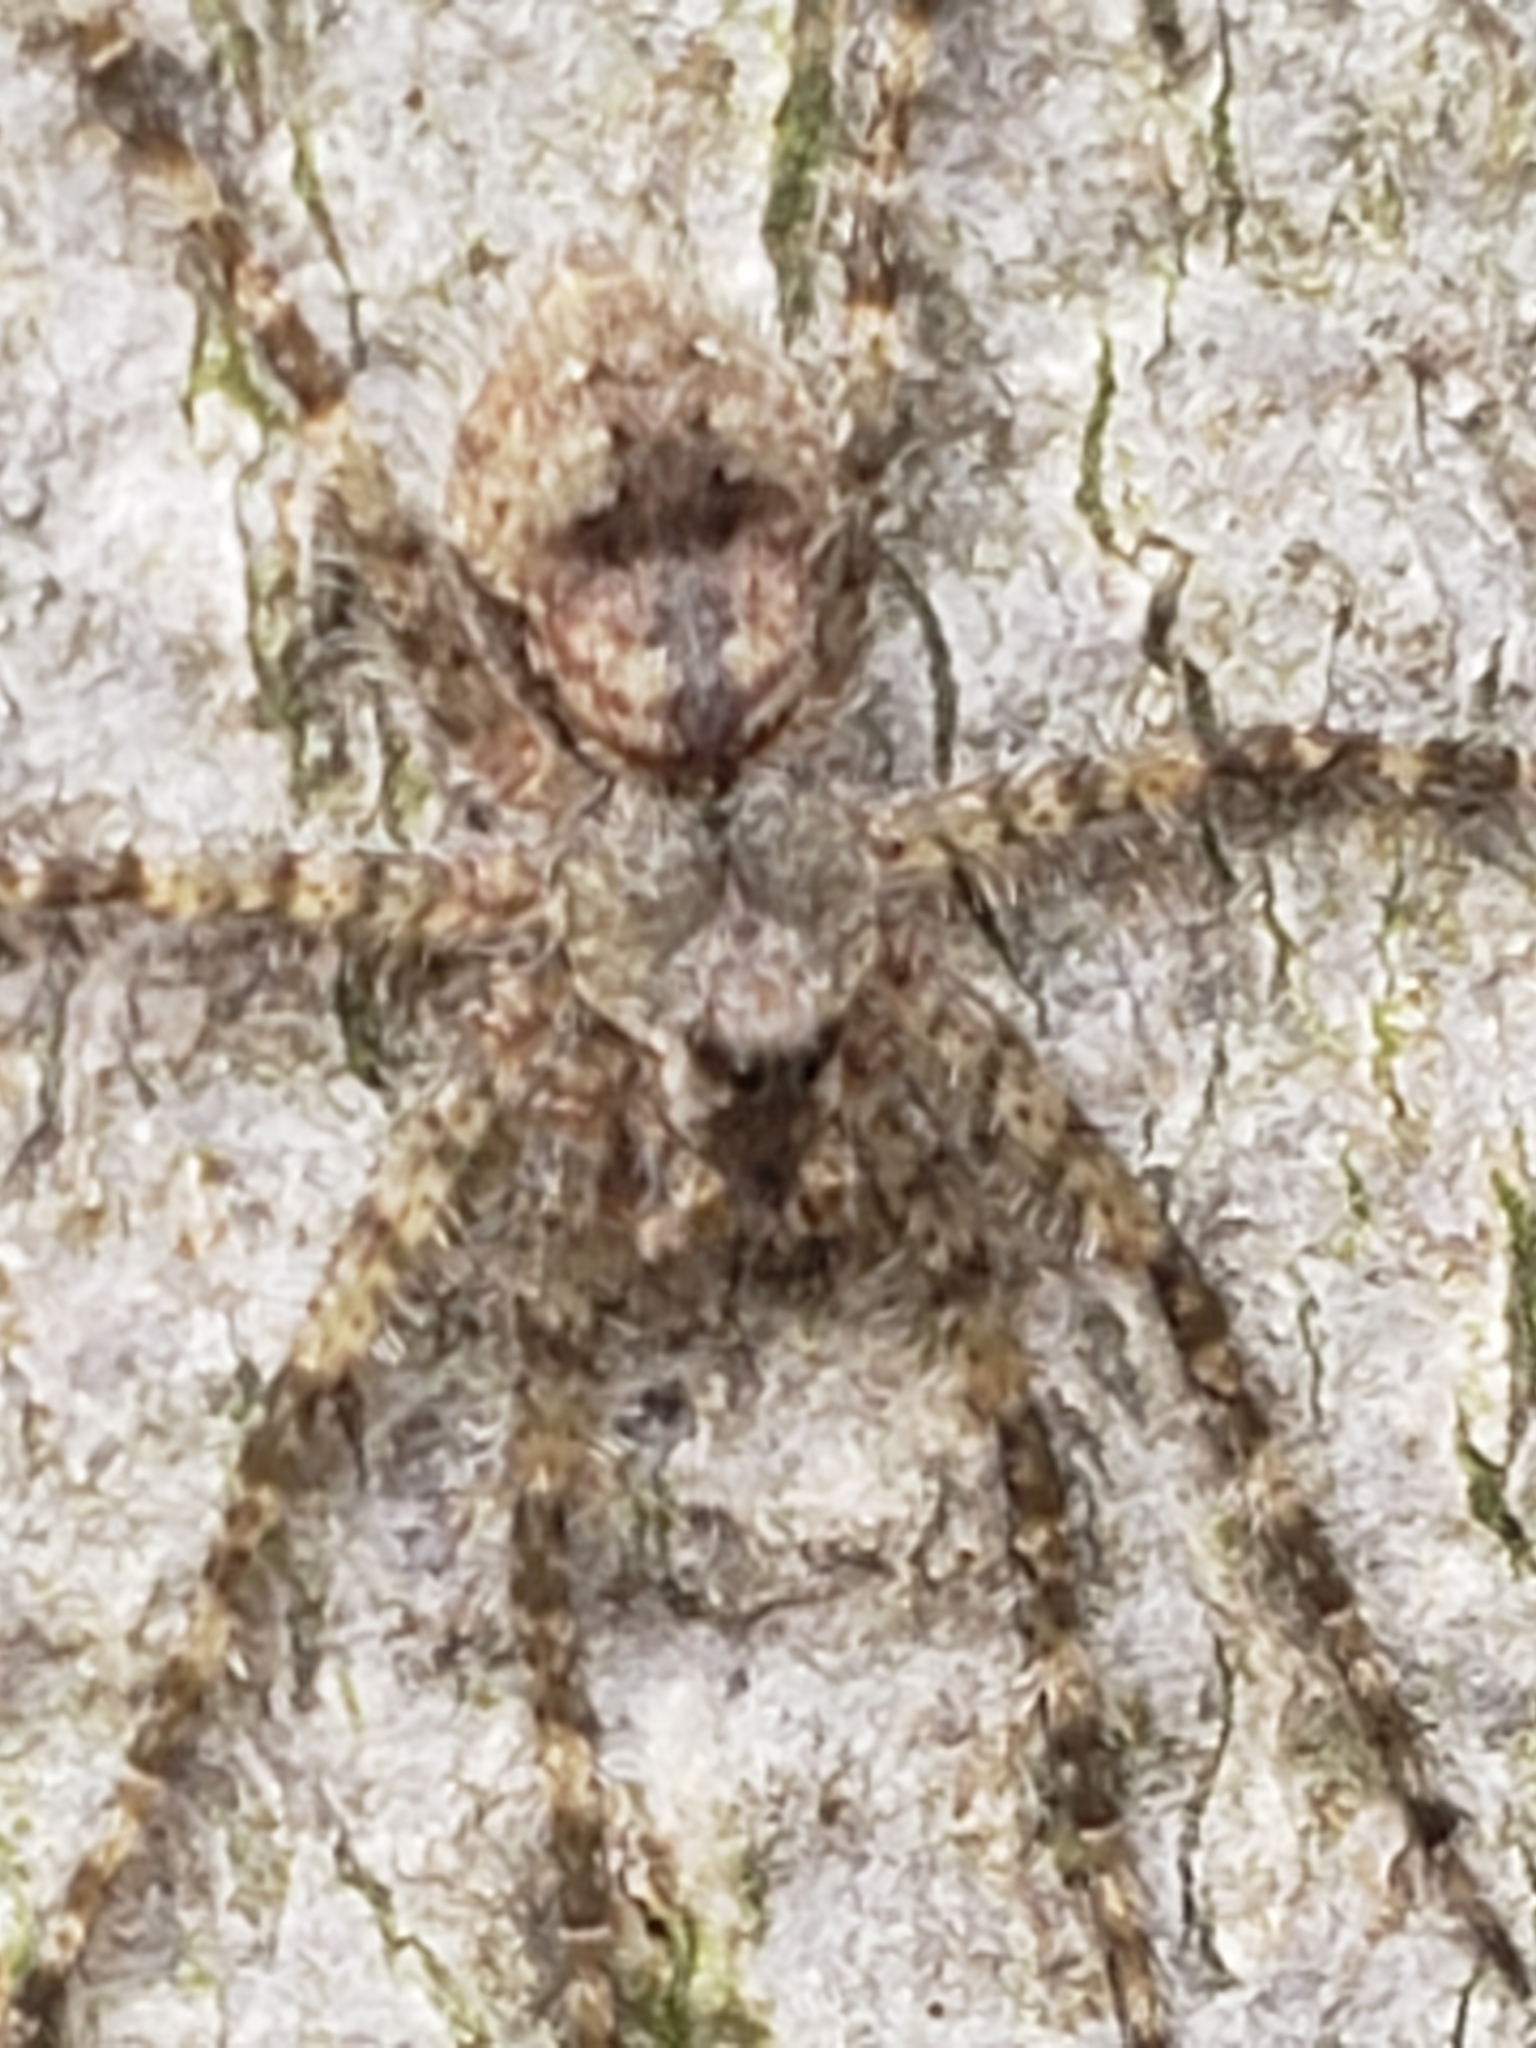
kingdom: Animalia
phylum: Arthropoda
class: Arachnida
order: Araneae
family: Pisauridae
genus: Dolomedes
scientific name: Dolomedes albineus
